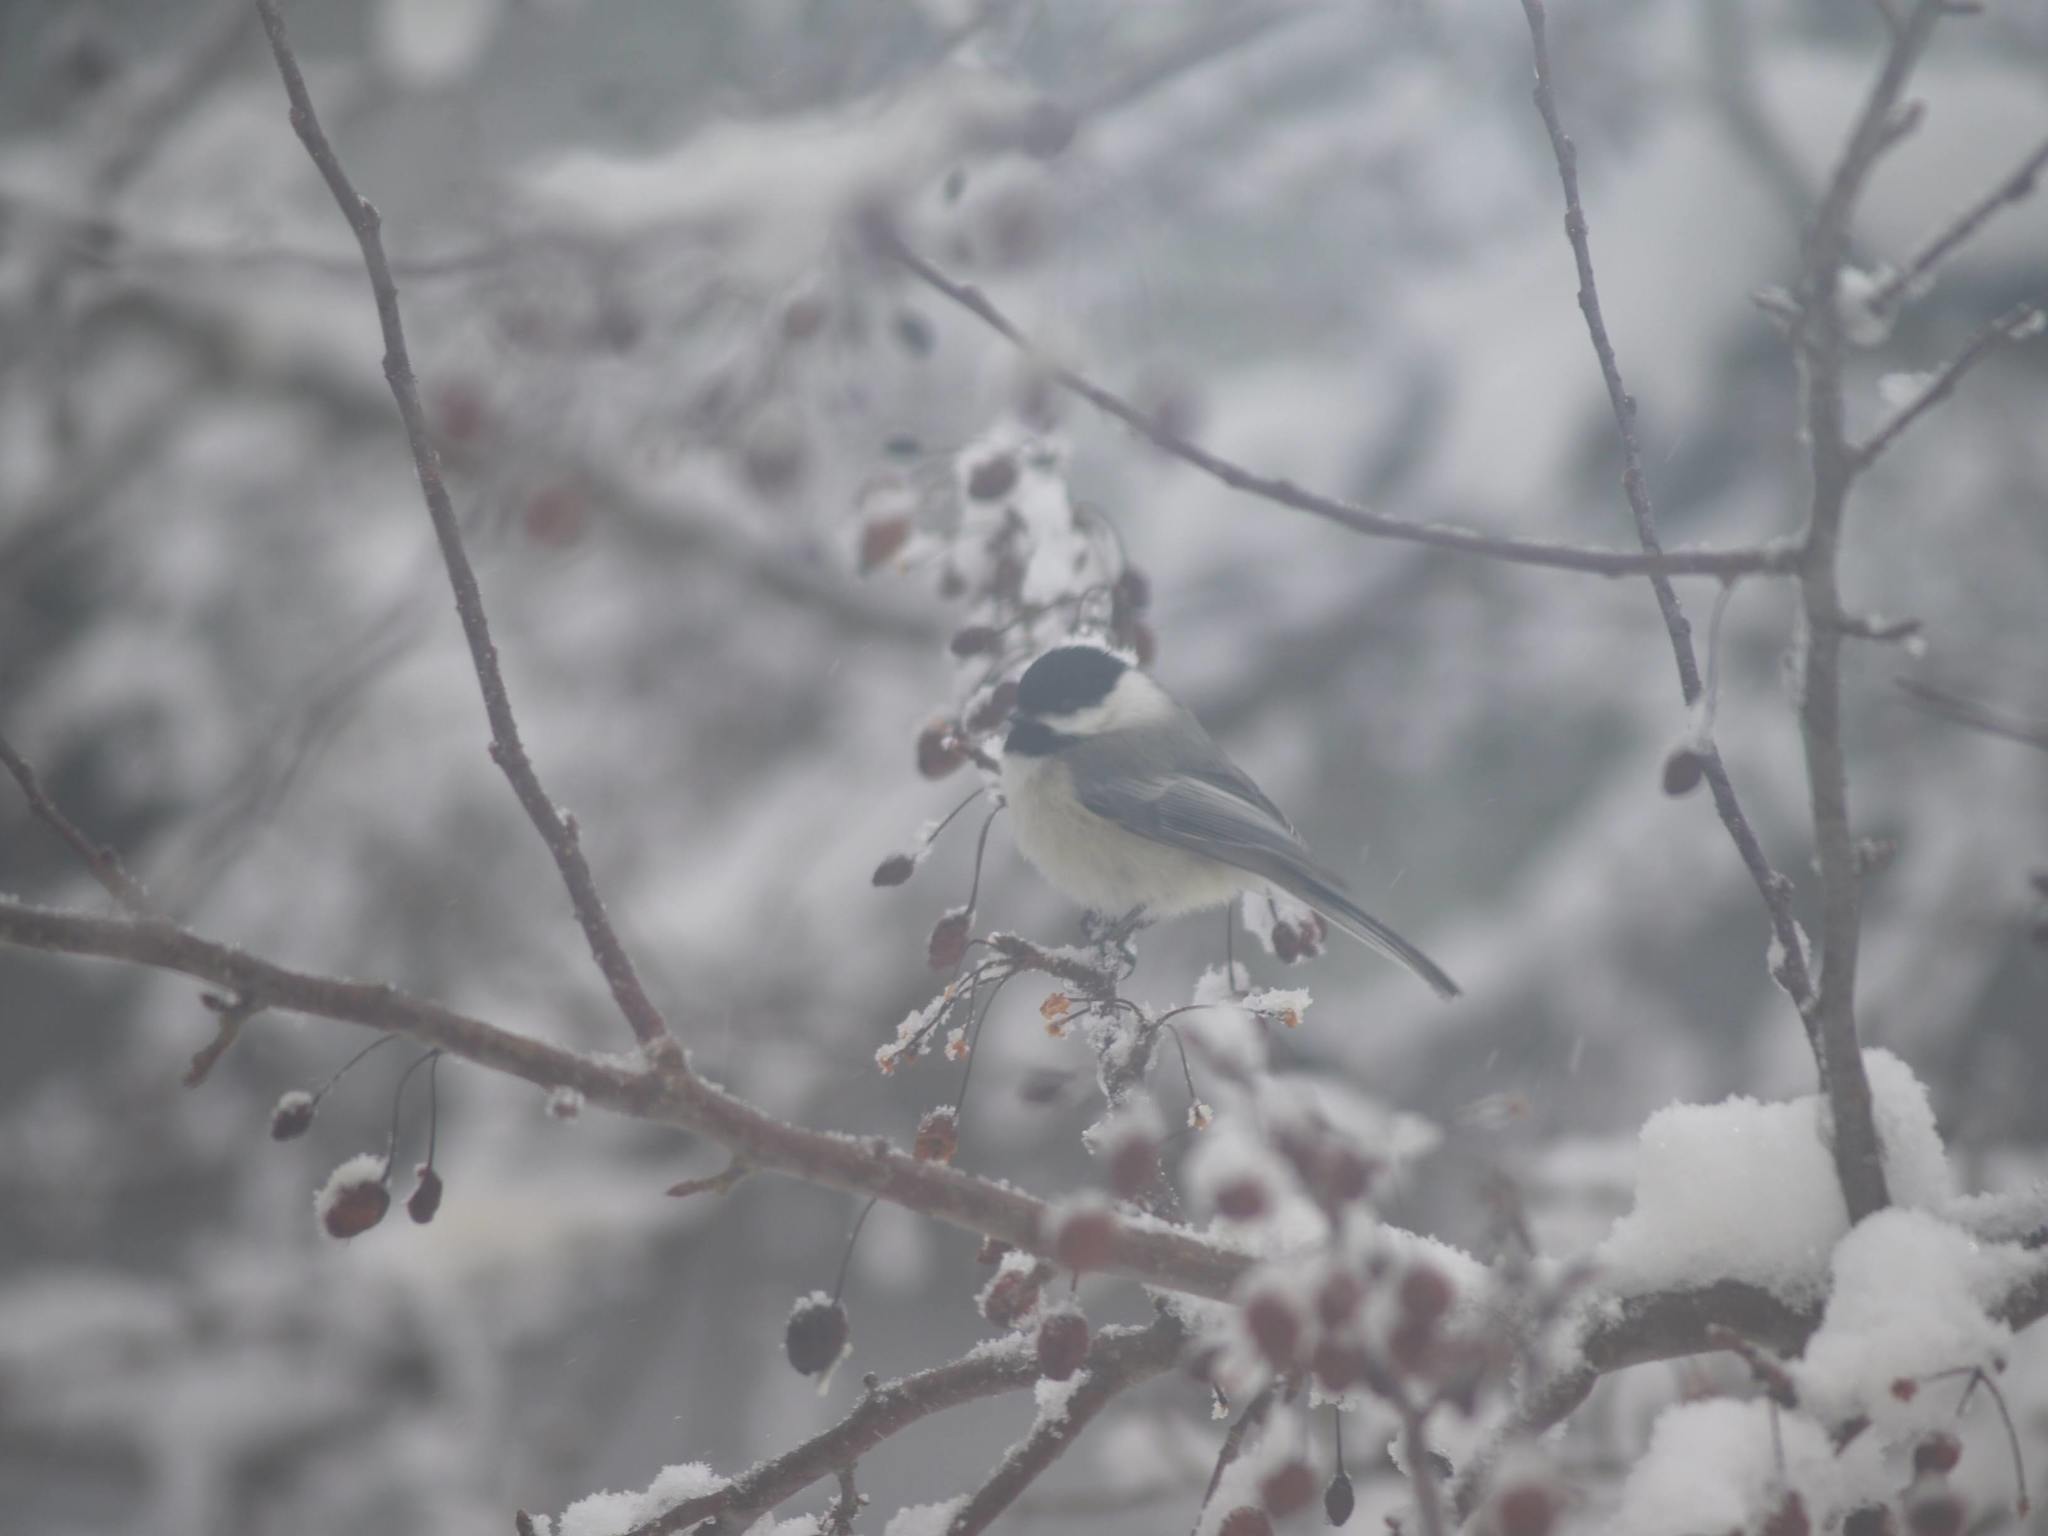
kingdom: Animalia
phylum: Chordata
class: Aves
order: Passeriformes
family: Paridae
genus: Poecile
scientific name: Poecile atricapillus
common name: Black-capped chickadee
